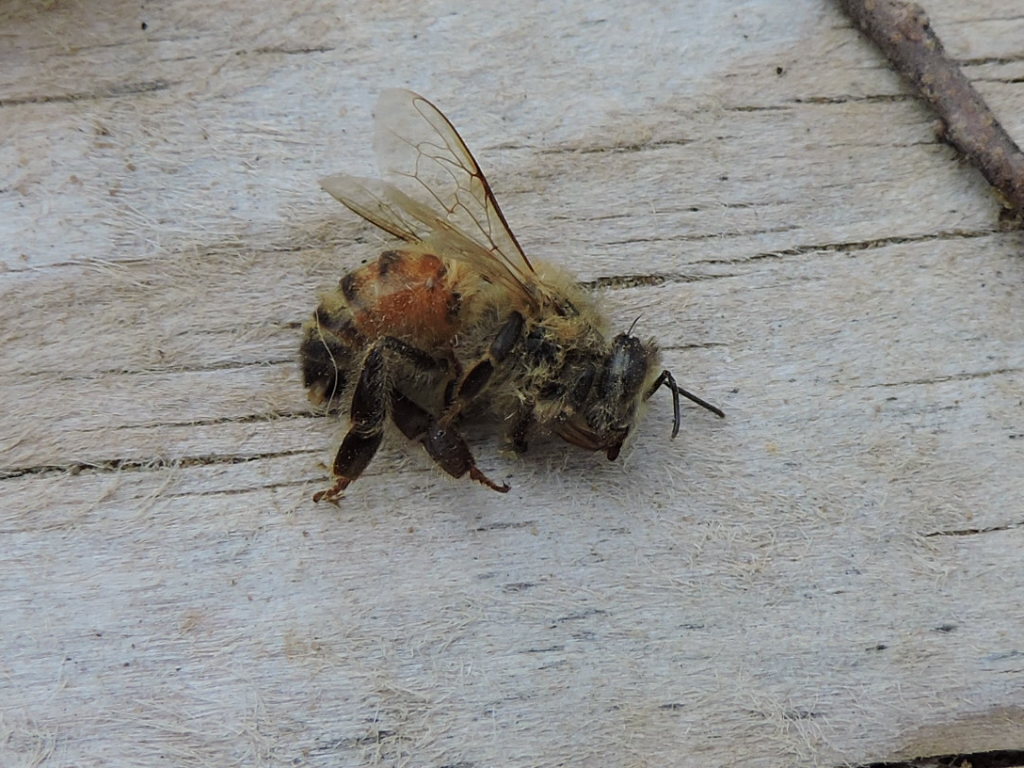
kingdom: Animalia
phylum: Arthropoda
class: Insecta
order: Hymenoptera
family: Apidae
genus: Apis
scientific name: Apis mellifera
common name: Honey bee
